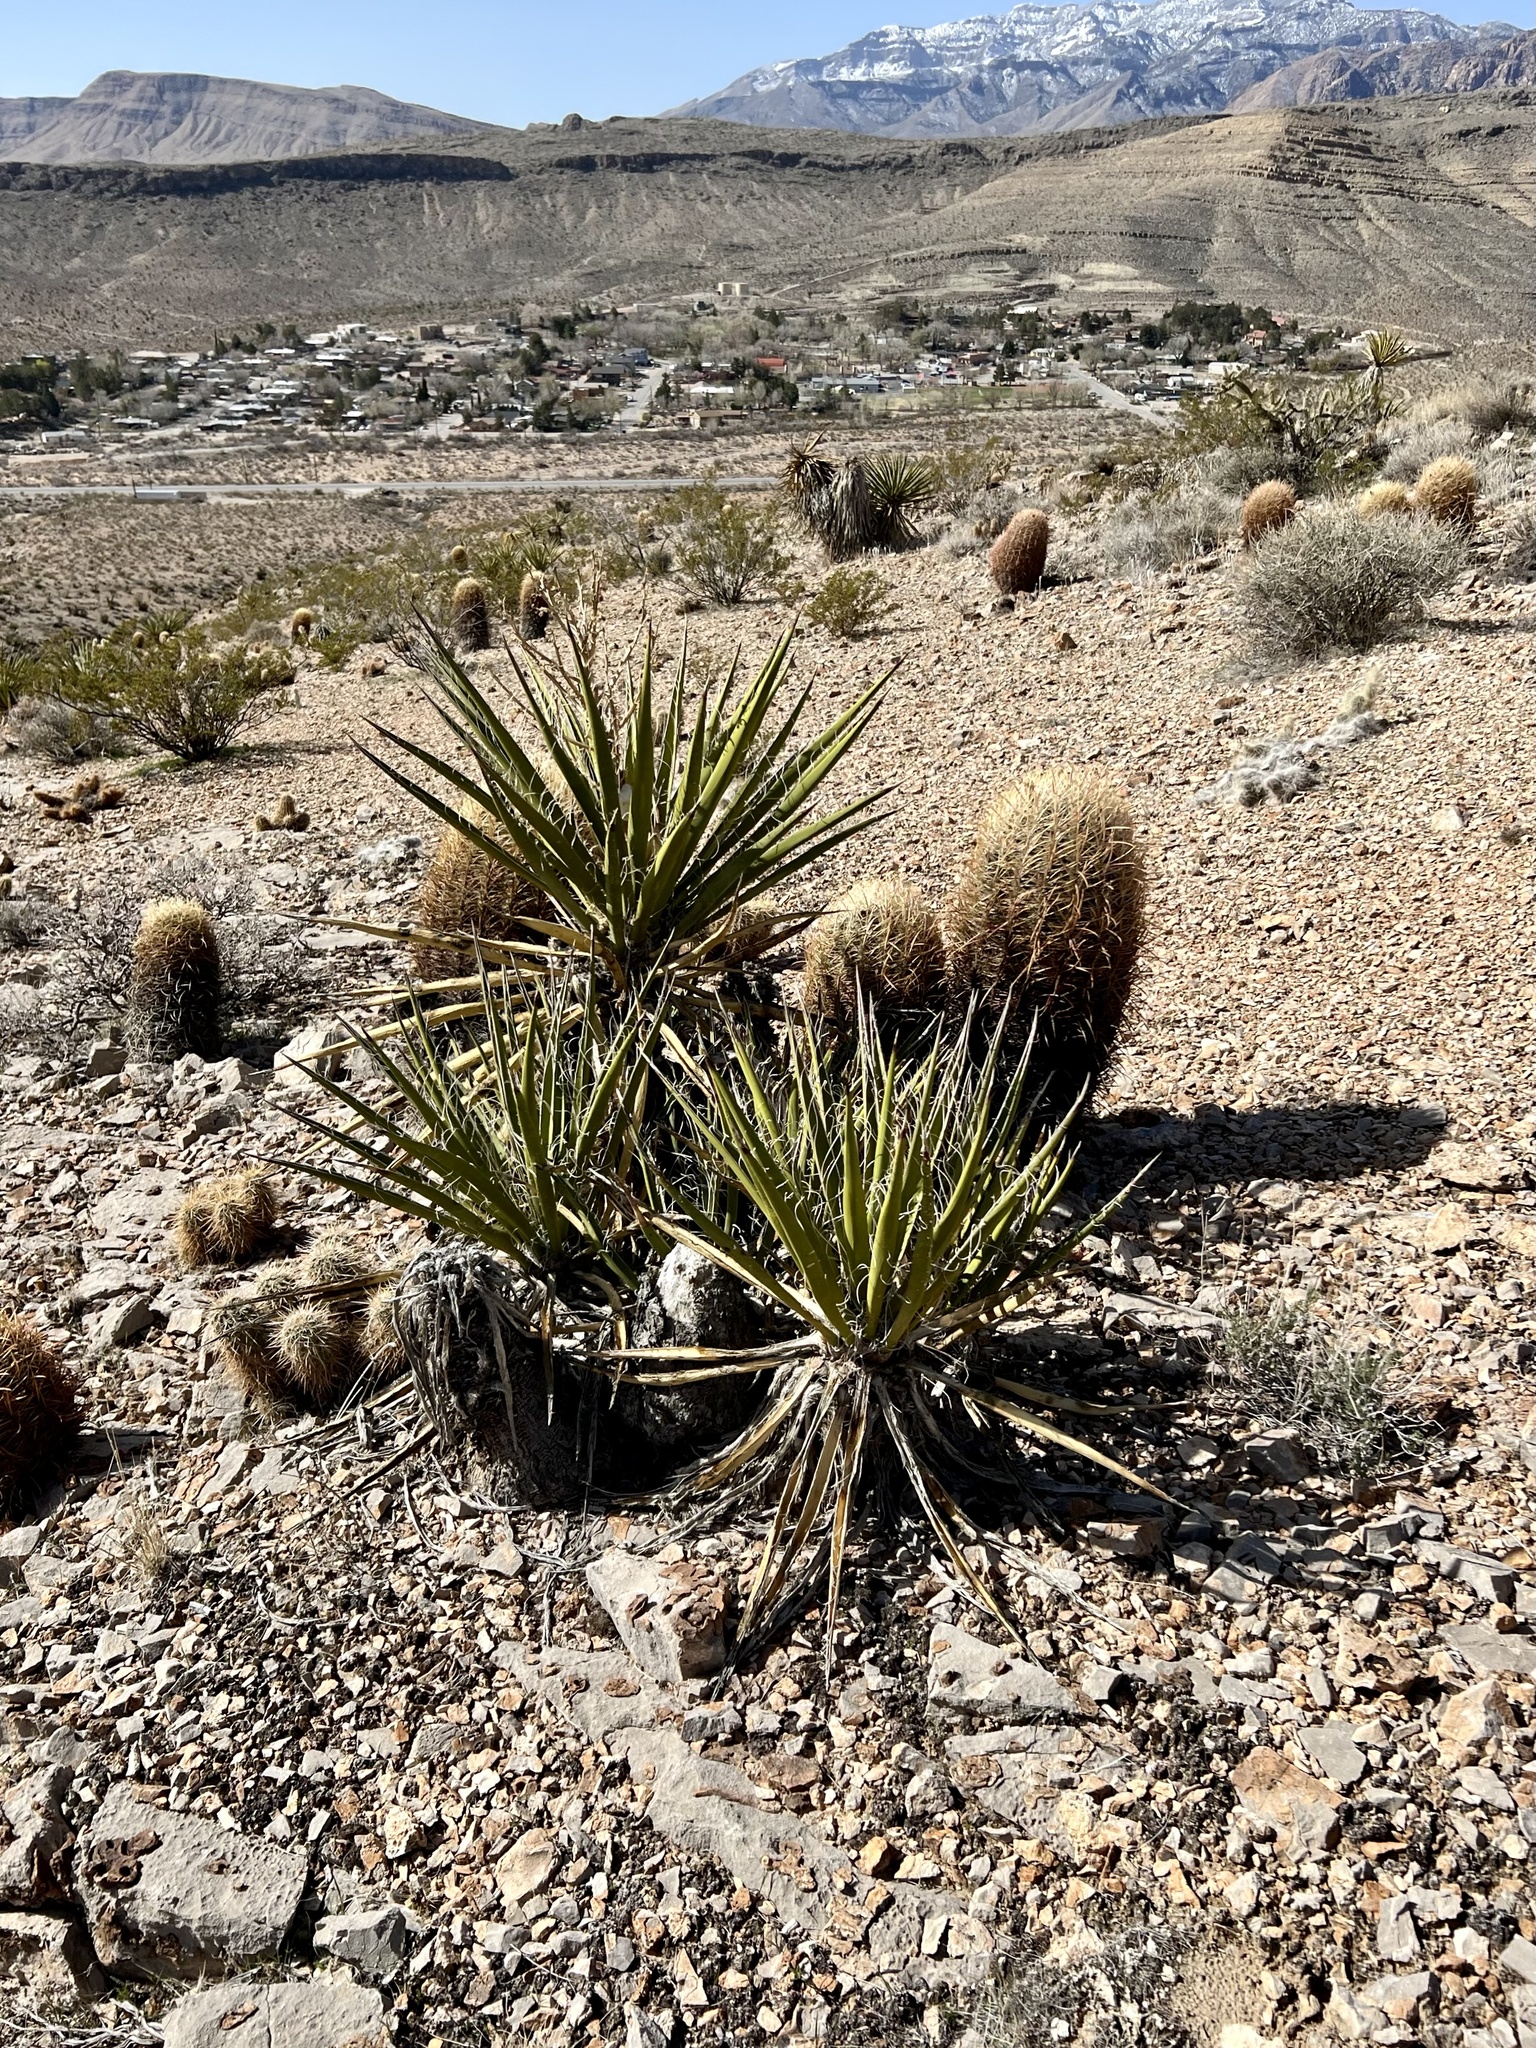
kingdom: Plantae
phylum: Tracheophyta
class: Liliopsida
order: Asparagales
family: Asparagaceae
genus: Yucca
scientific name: Yucca schidigera
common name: Mojave yucca
